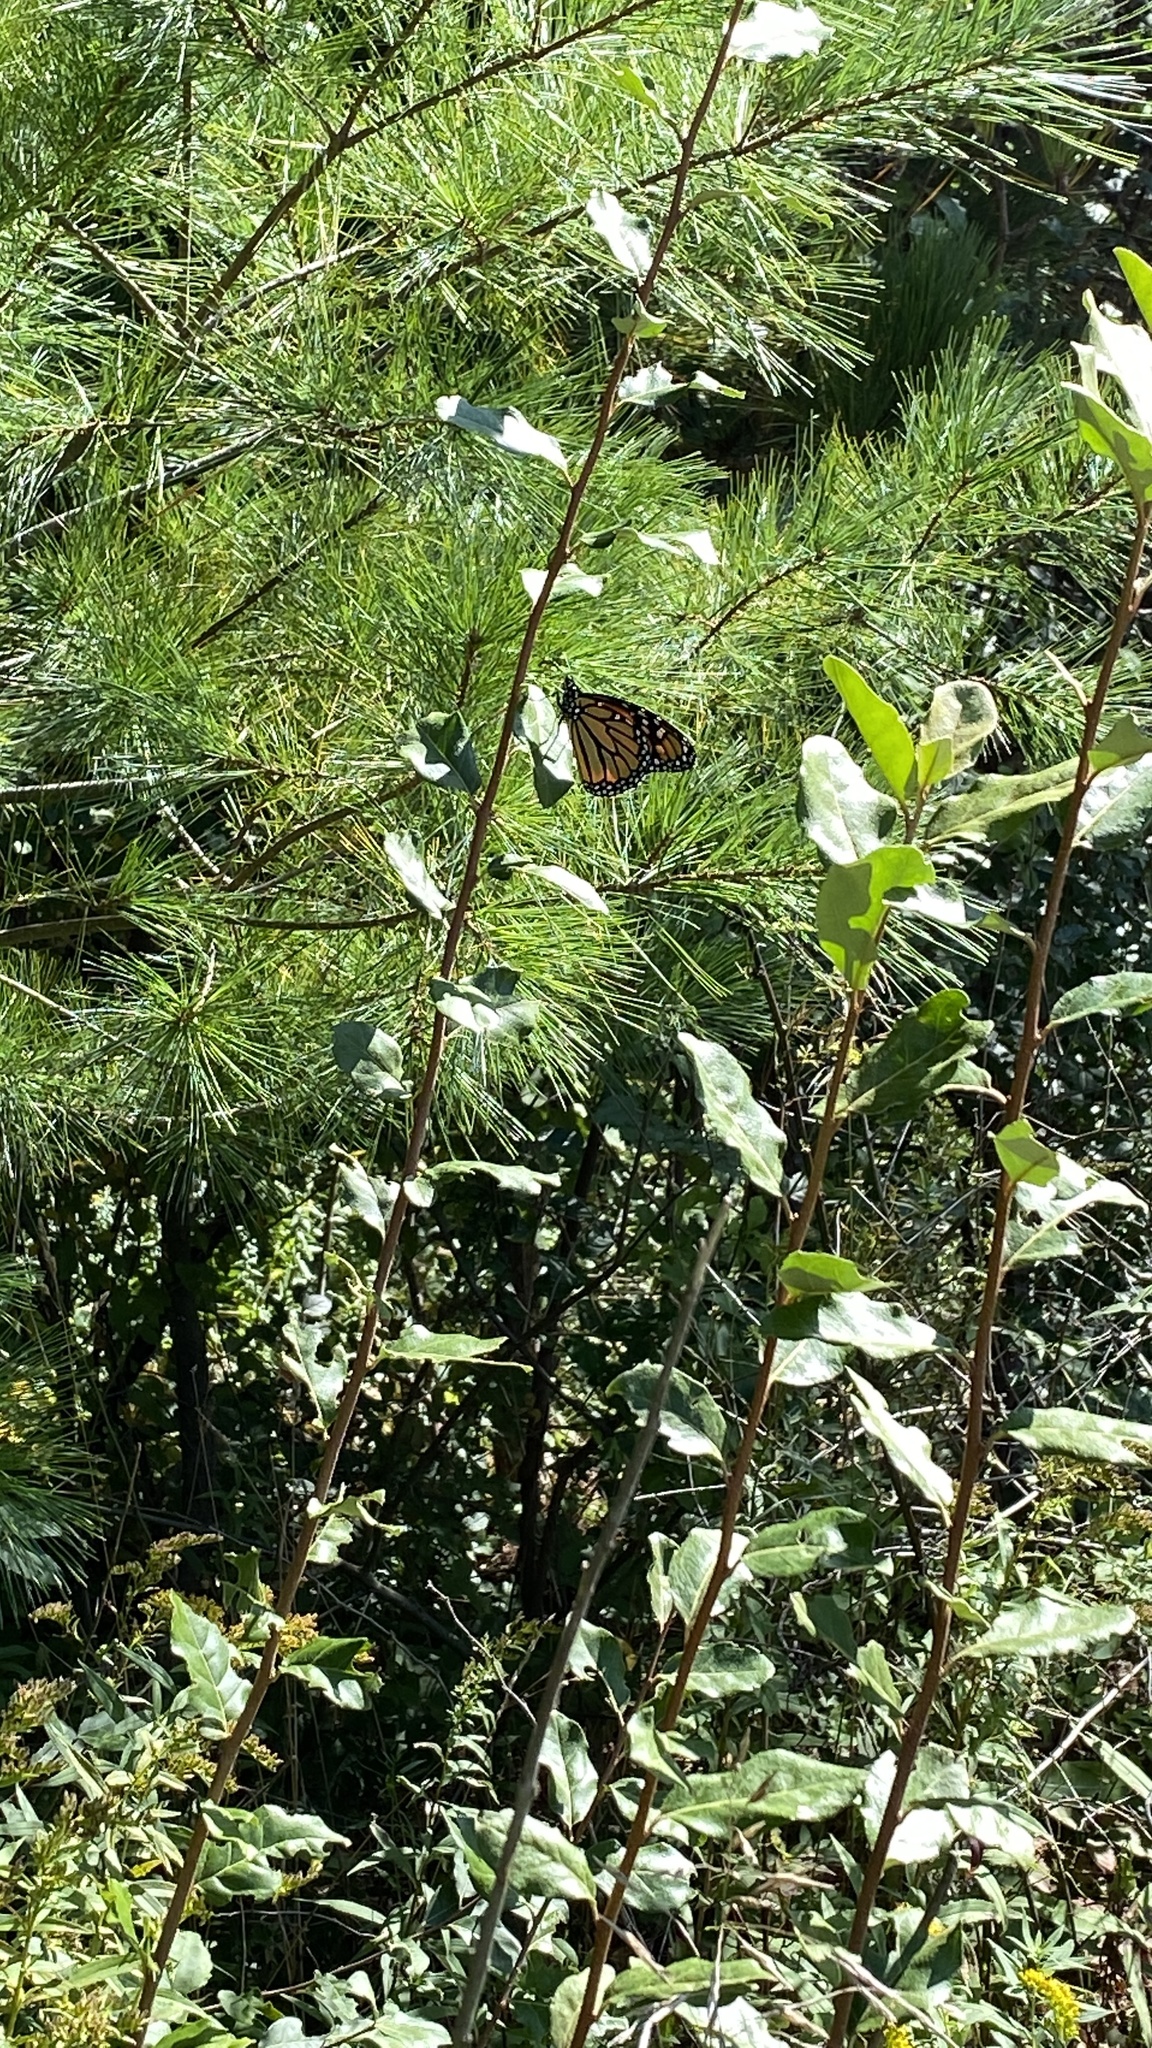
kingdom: Animalia
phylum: Arthropoda
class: Insecta
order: Lepidoptera
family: Nymphalidae
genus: Danaus
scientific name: Danaus plexippus
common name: Monarch
